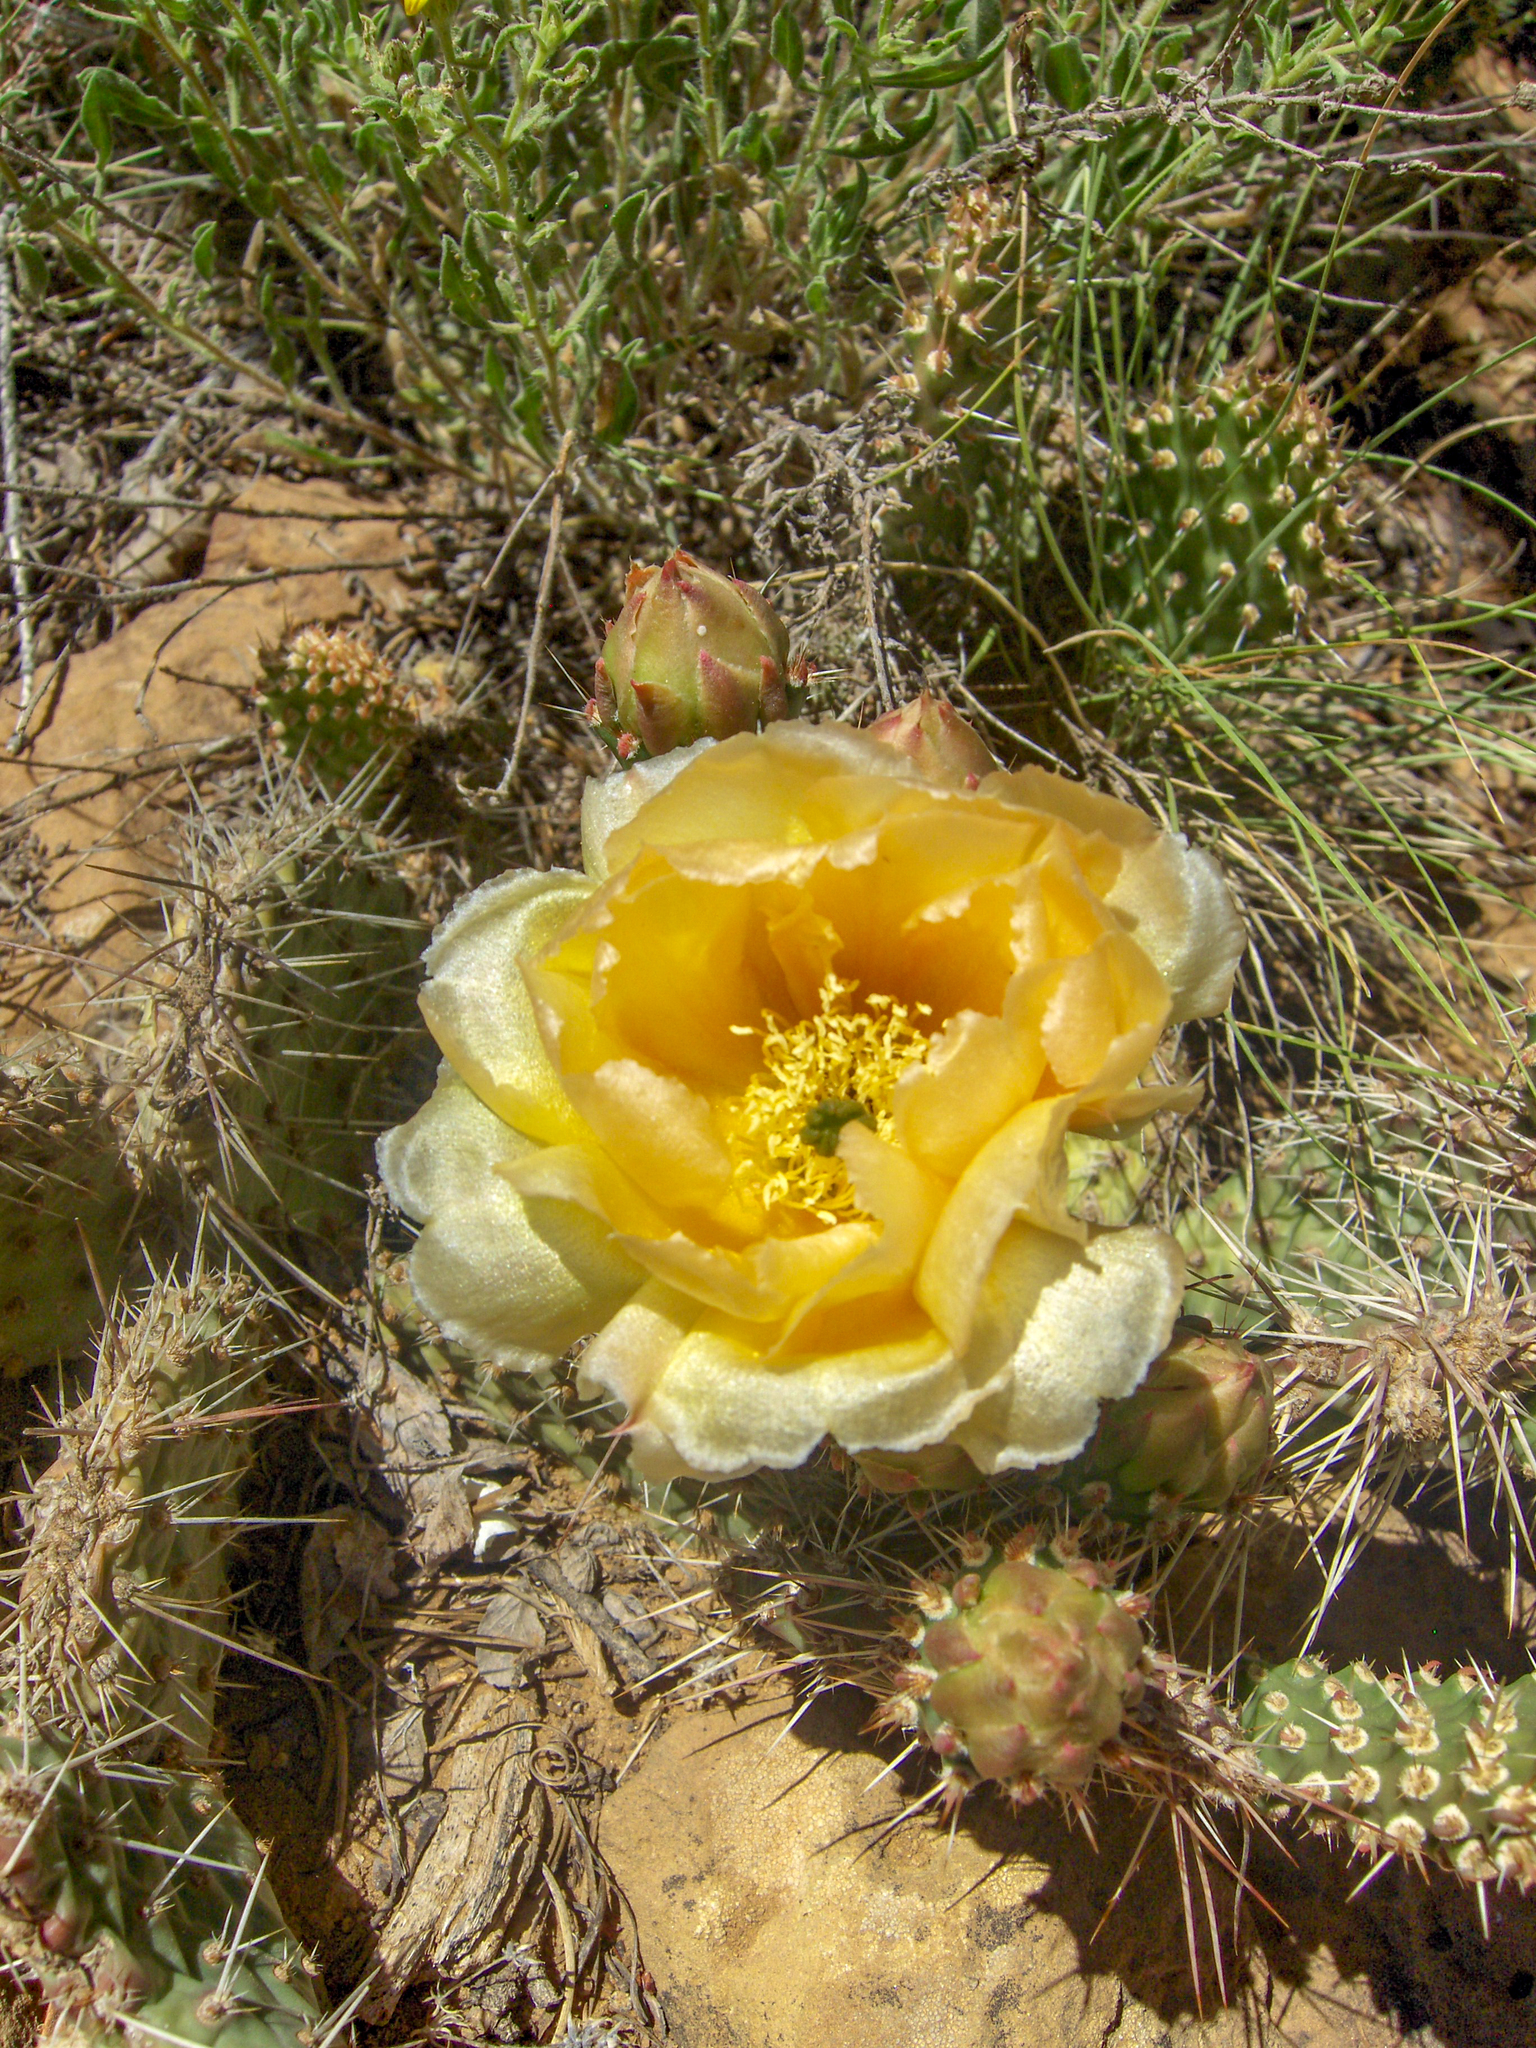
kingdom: Plantae
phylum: Tracheophyta
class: Magnoliopsida
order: Caryophyllales
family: Cactaceae
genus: Opuntia
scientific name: Opuntia polyacantha
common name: Plains prickly-pear
